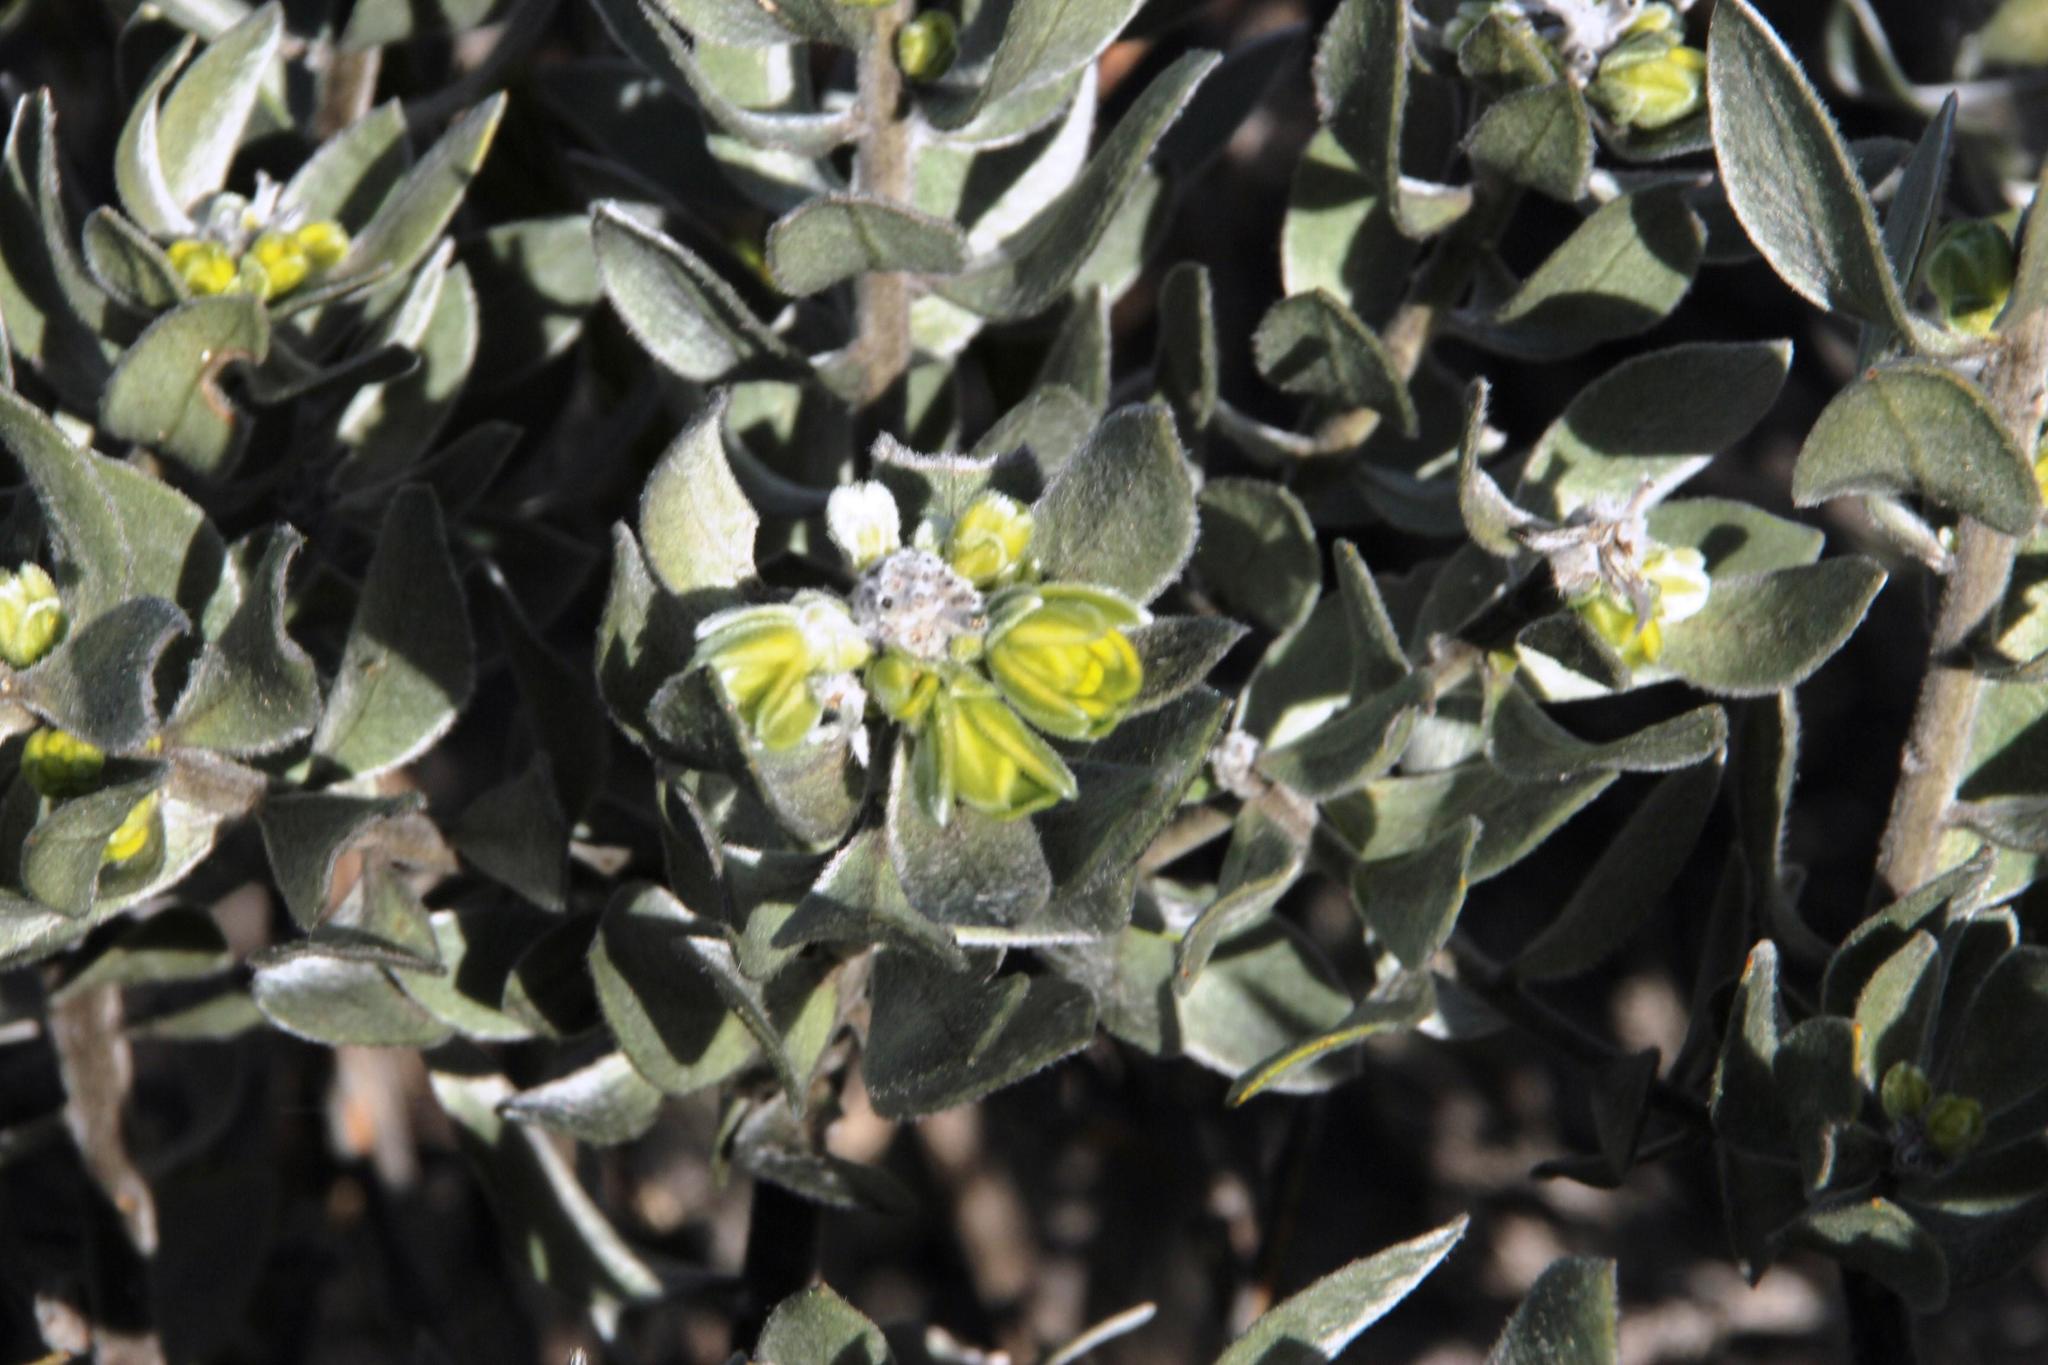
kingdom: Plantae
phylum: Tracheophyta
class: Magnoliopsida
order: Fabales
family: Fabaceae
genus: Xiphotheca
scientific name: Xiphotheca fruticosa
